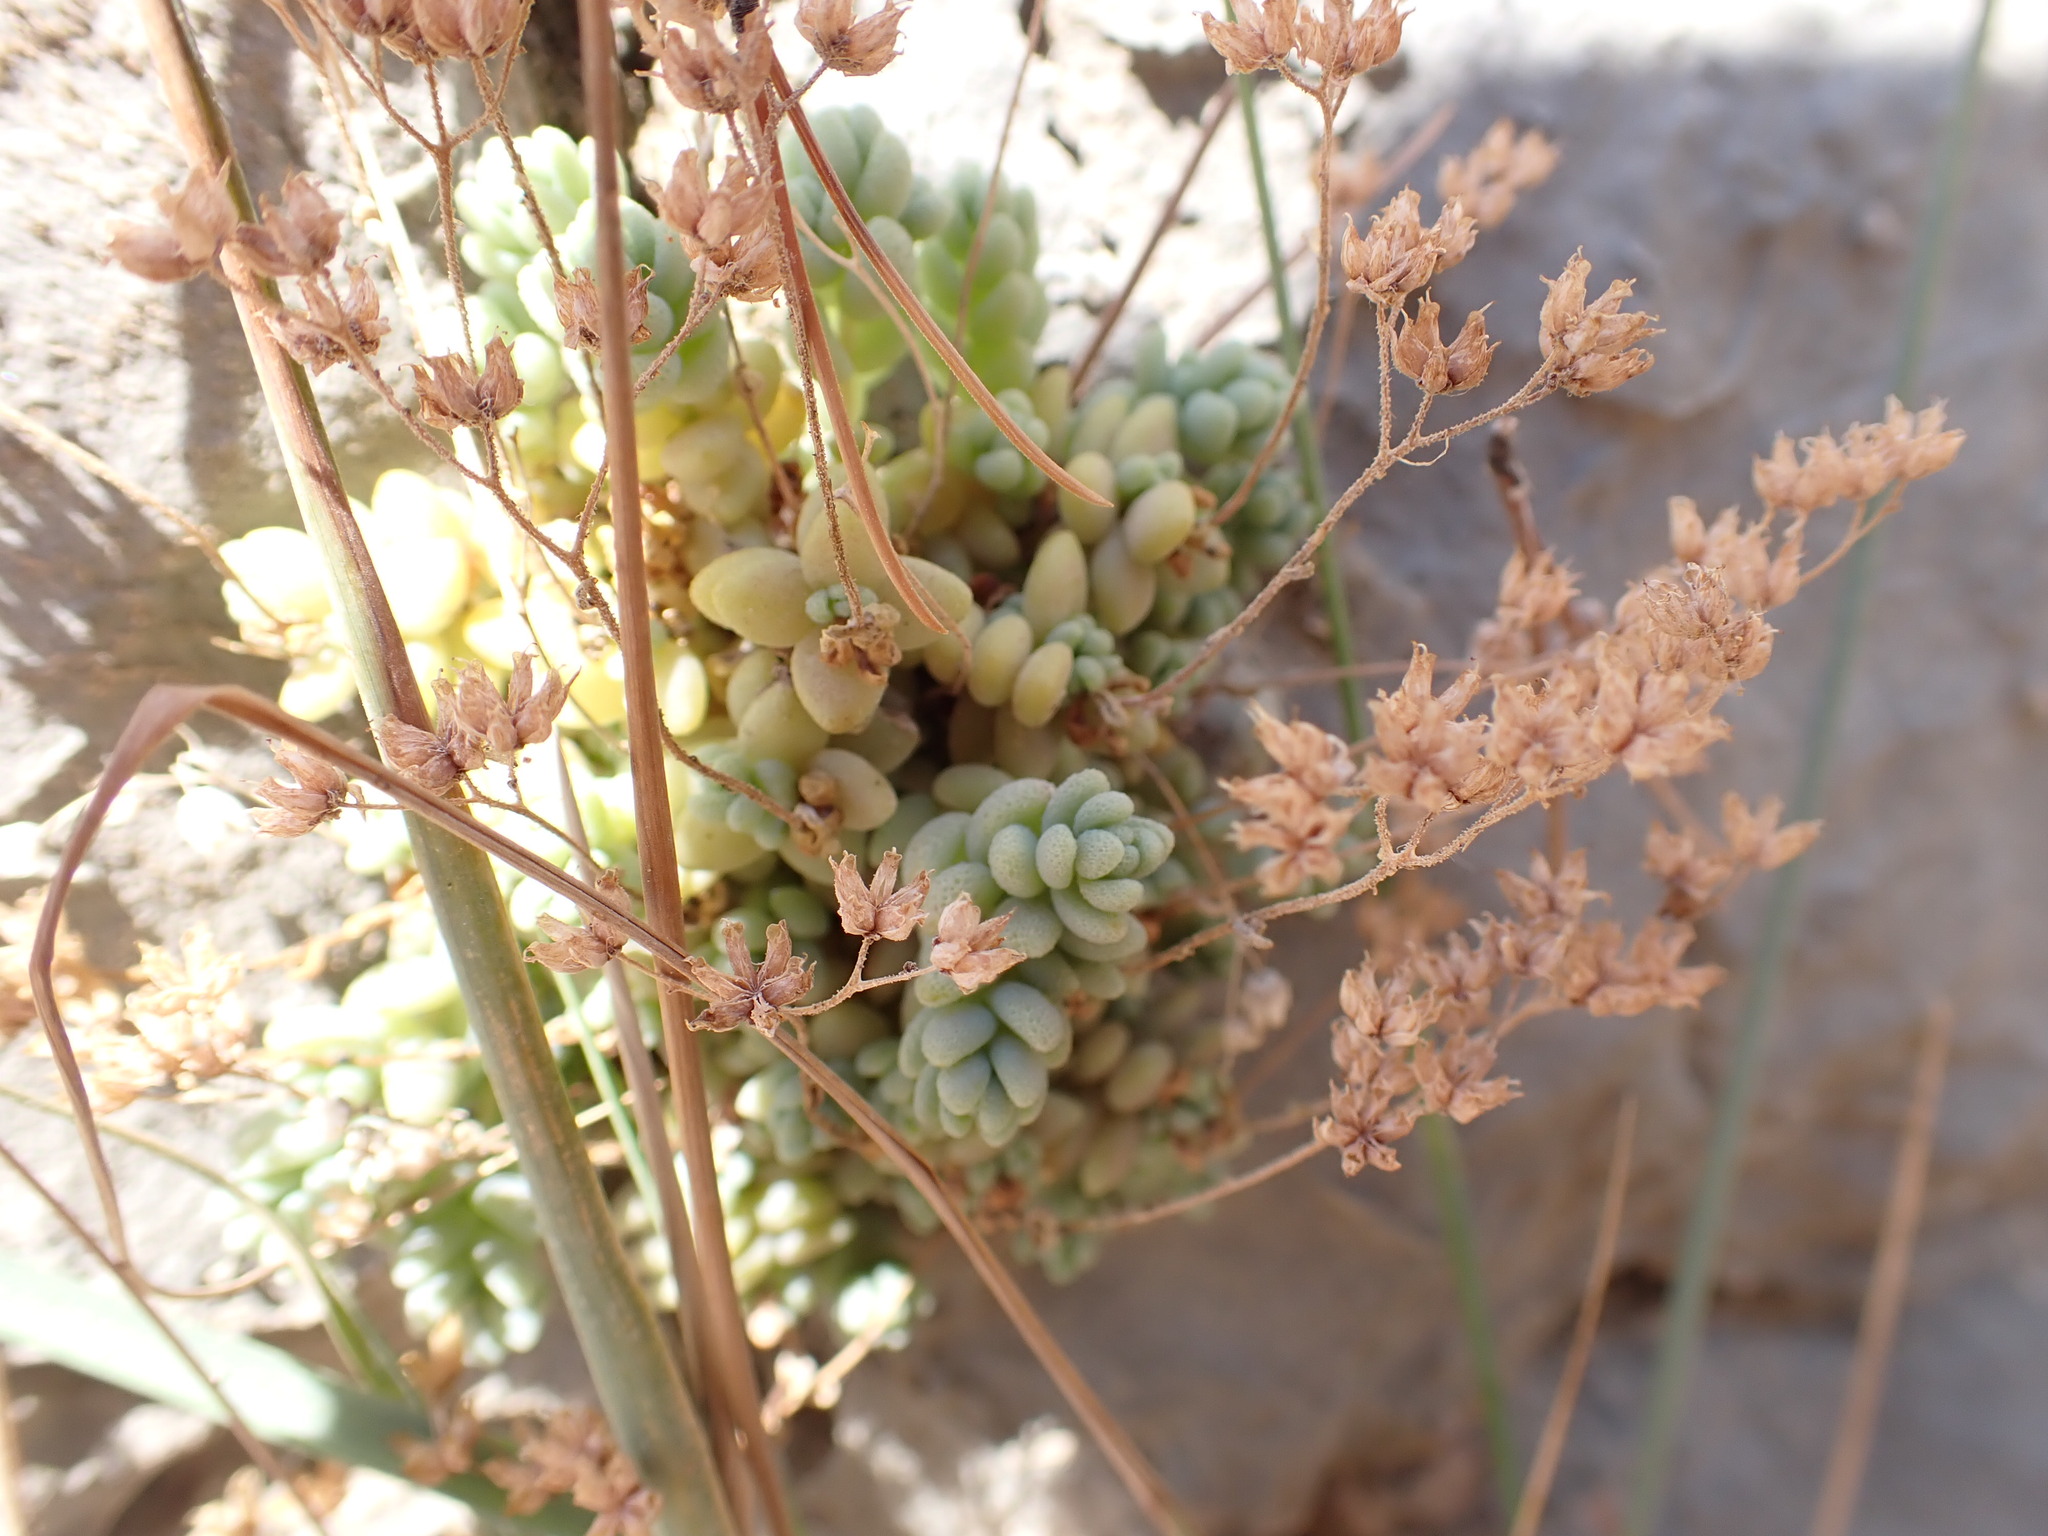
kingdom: Plantae
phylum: Tracheophyta
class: Magnoliopsida
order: Saxifragales
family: Crassulaceae
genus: Sedum
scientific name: Sedum dasyphyllum
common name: Thick-leaf stonecrop
